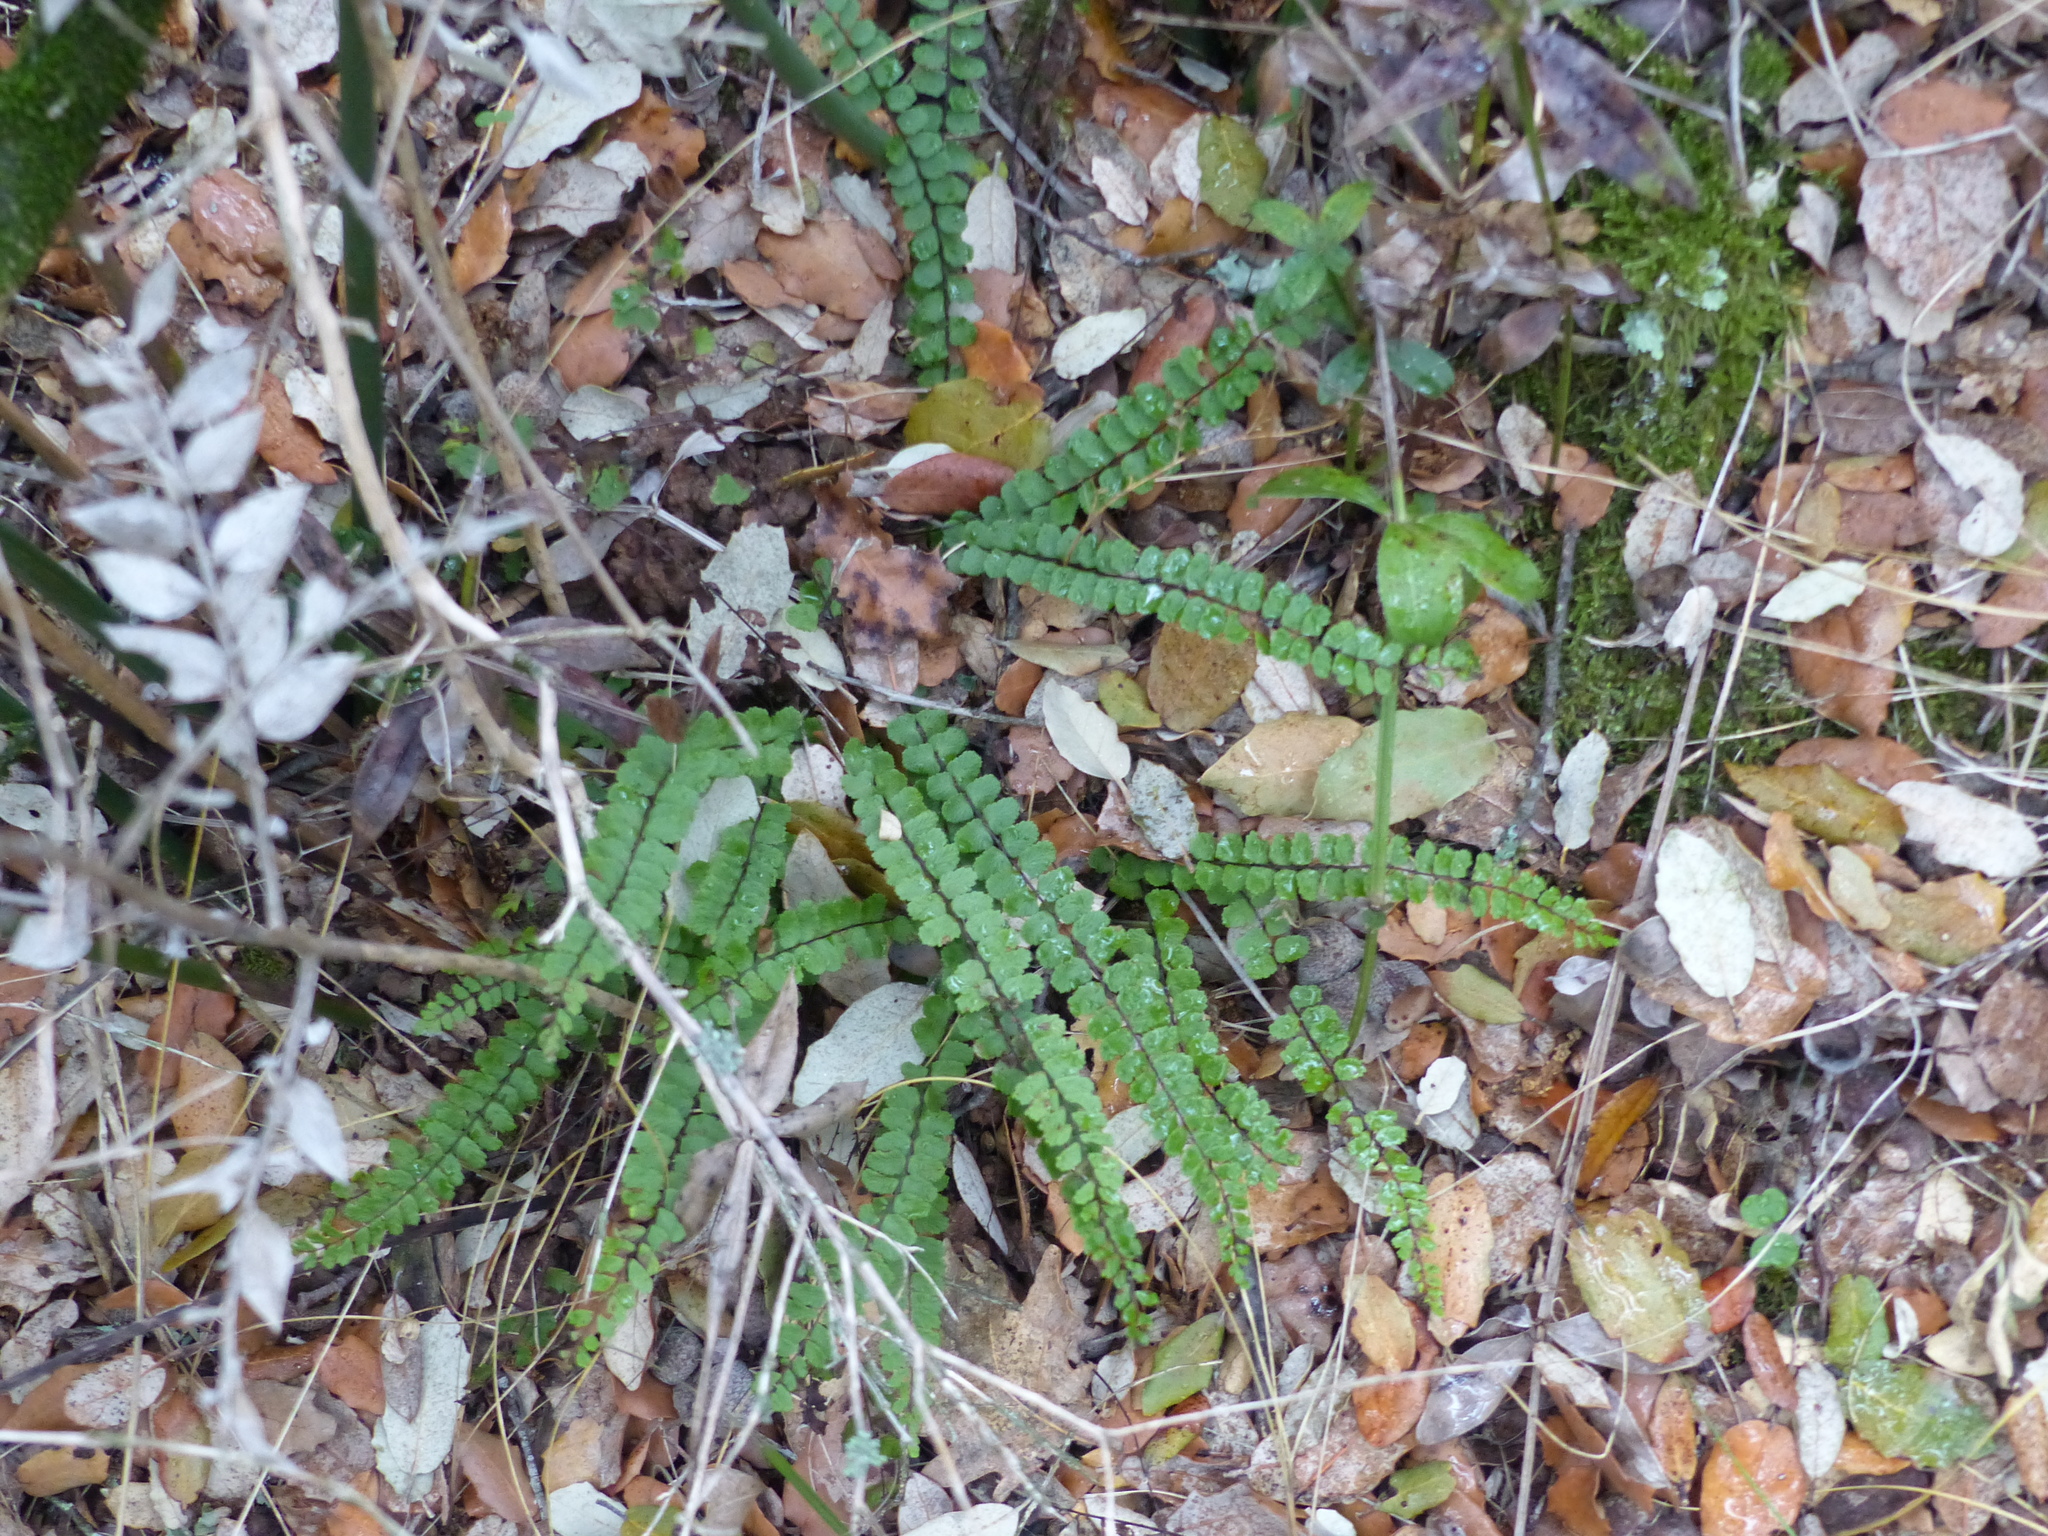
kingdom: Plantae
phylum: Tracheophyta
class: Polypodiopsida
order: Polypodiales
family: Aspleniaceae
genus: Asplenium
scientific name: Asplenium trichomanes
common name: Maidenhair spleenwort
